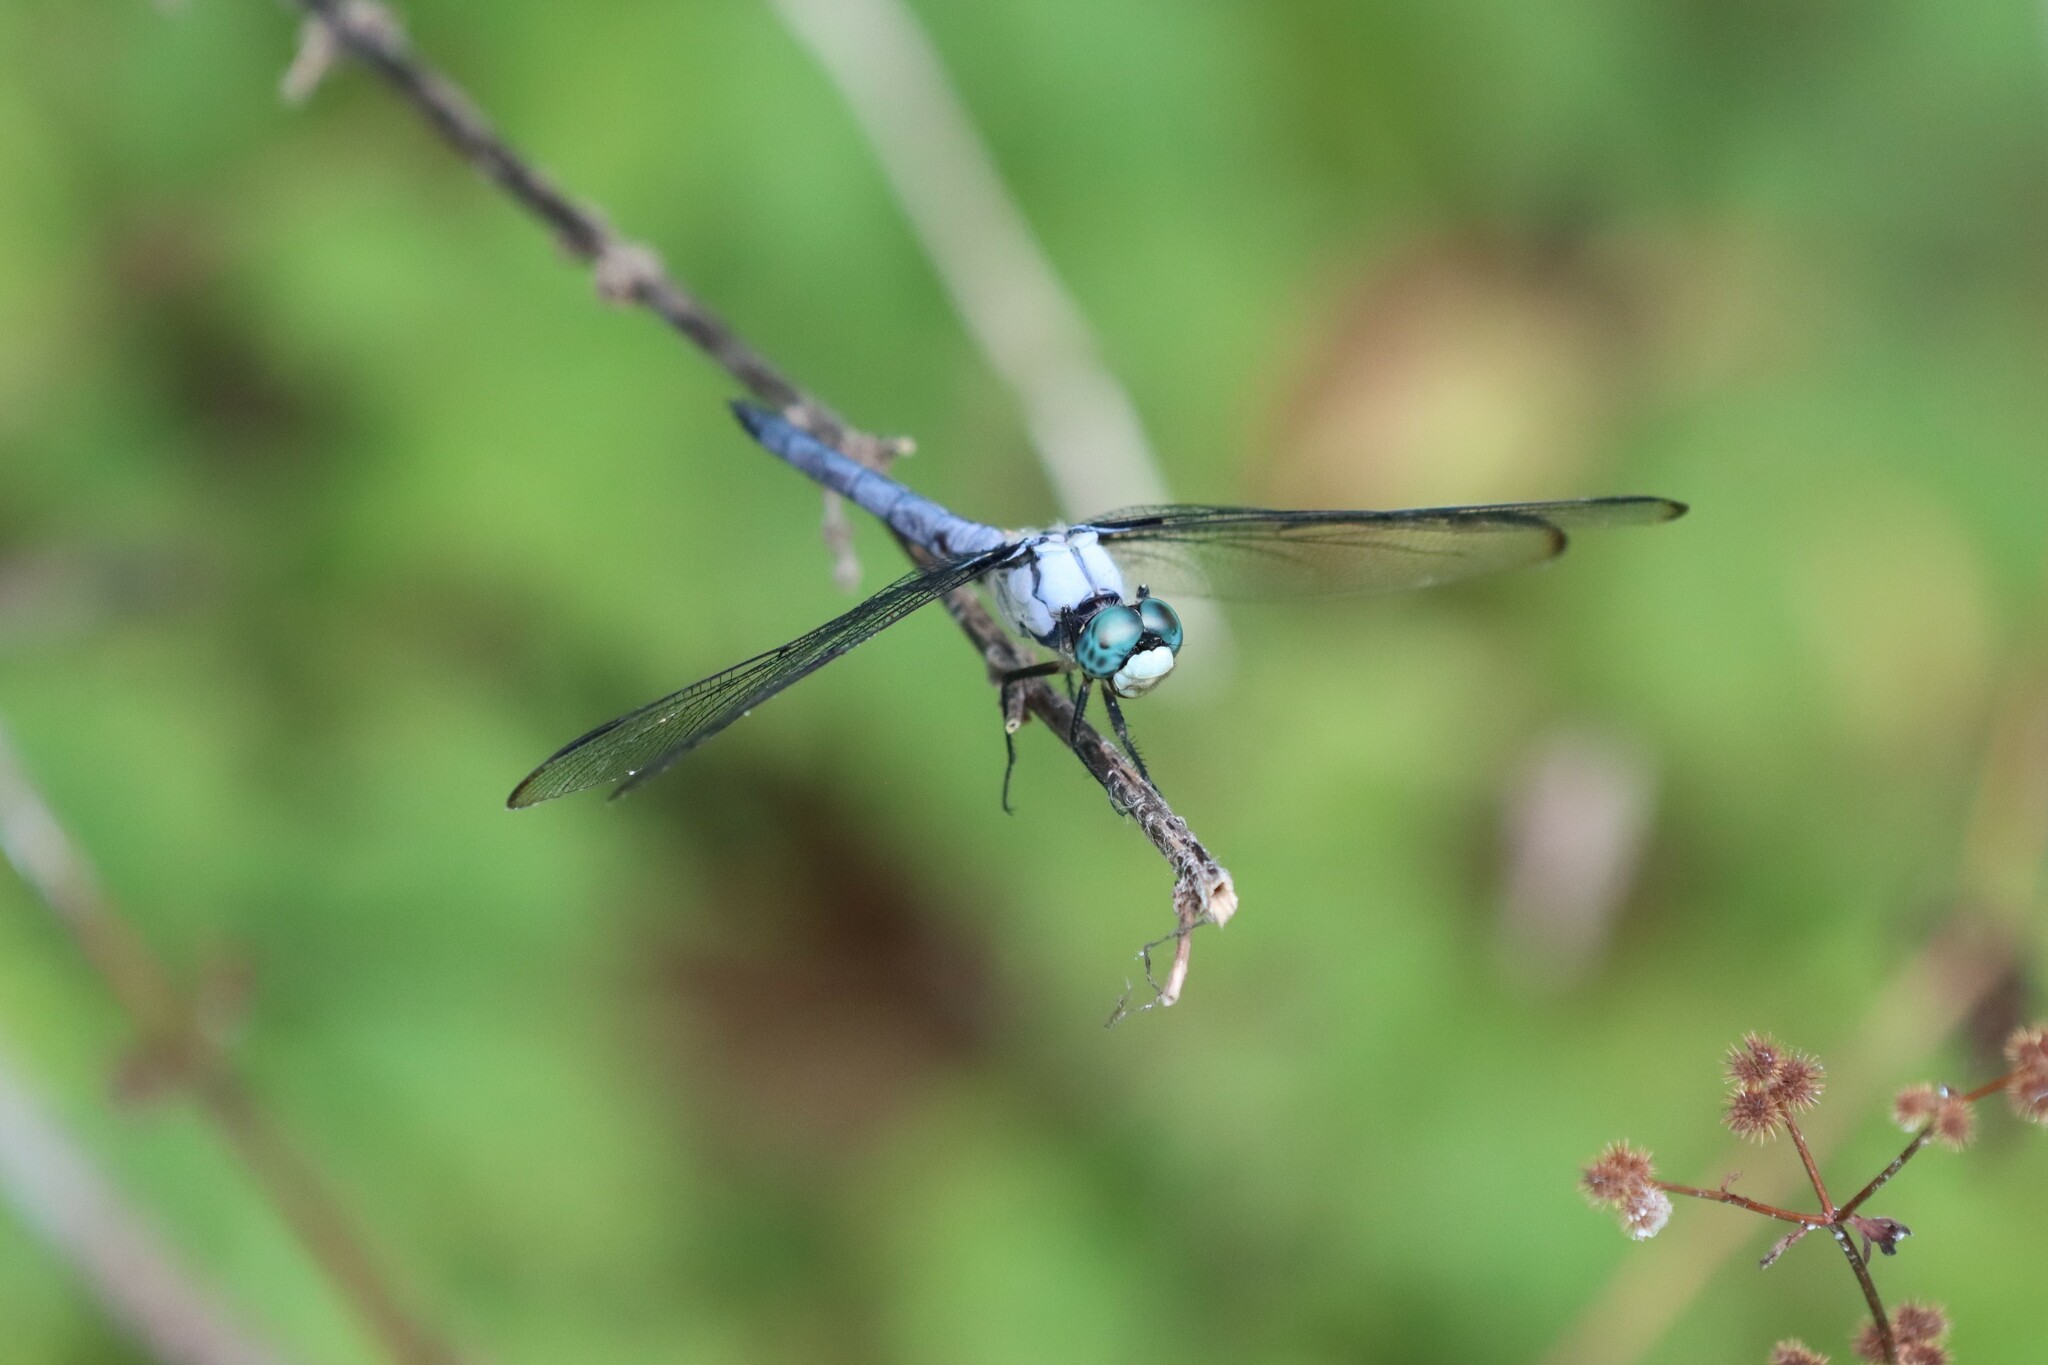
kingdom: Animalia
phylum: Arthropoda
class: Insecta
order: Odonata
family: Libellulidae
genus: Libellula
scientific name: Libellula vibrans
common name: Great blue skimmer
